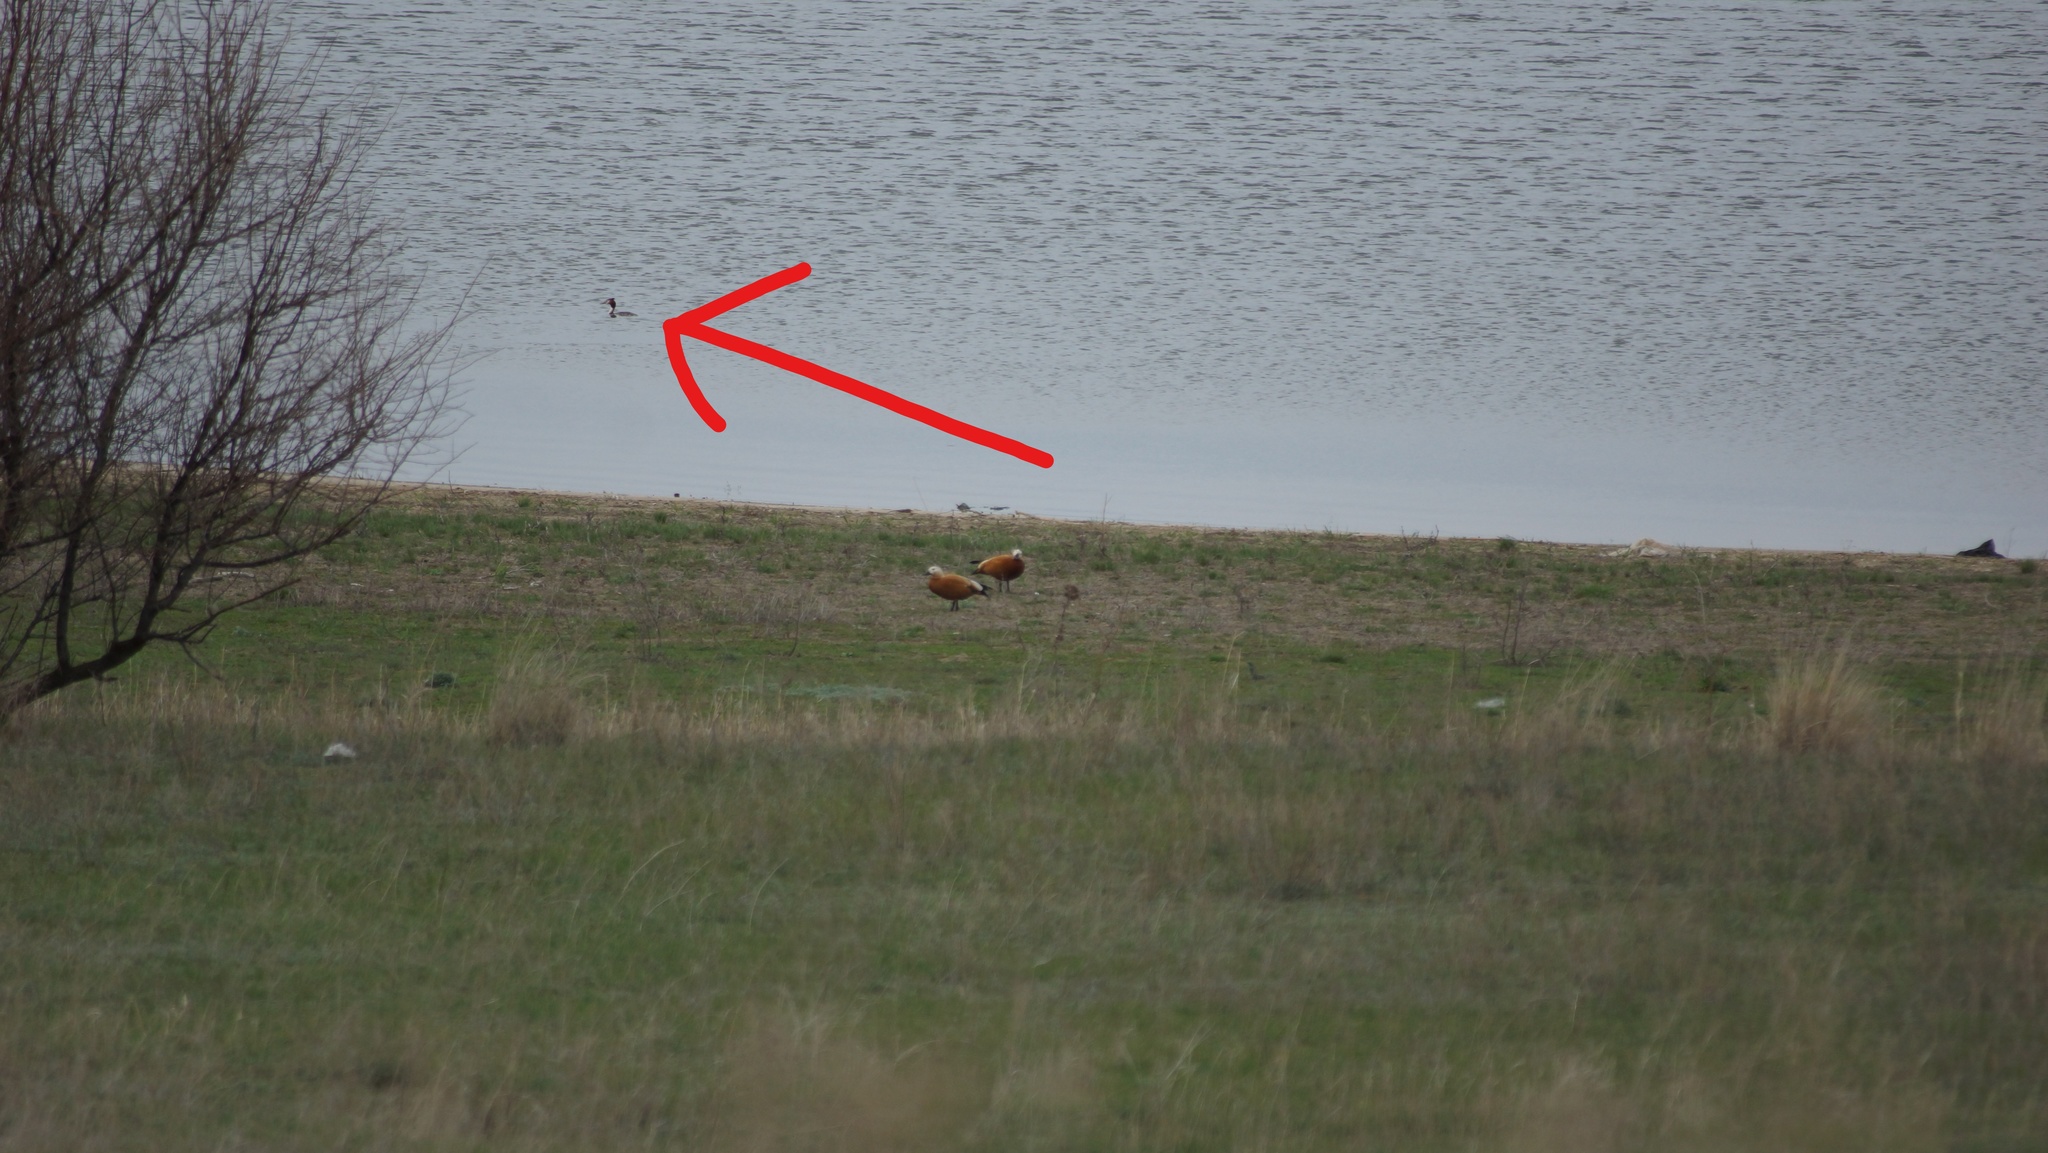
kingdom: Animalia
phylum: Chordata
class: Aves
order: Podicipediformes
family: Podicipedidae
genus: Podiceps
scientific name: Podiceps cristatus
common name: Great crested grebe
